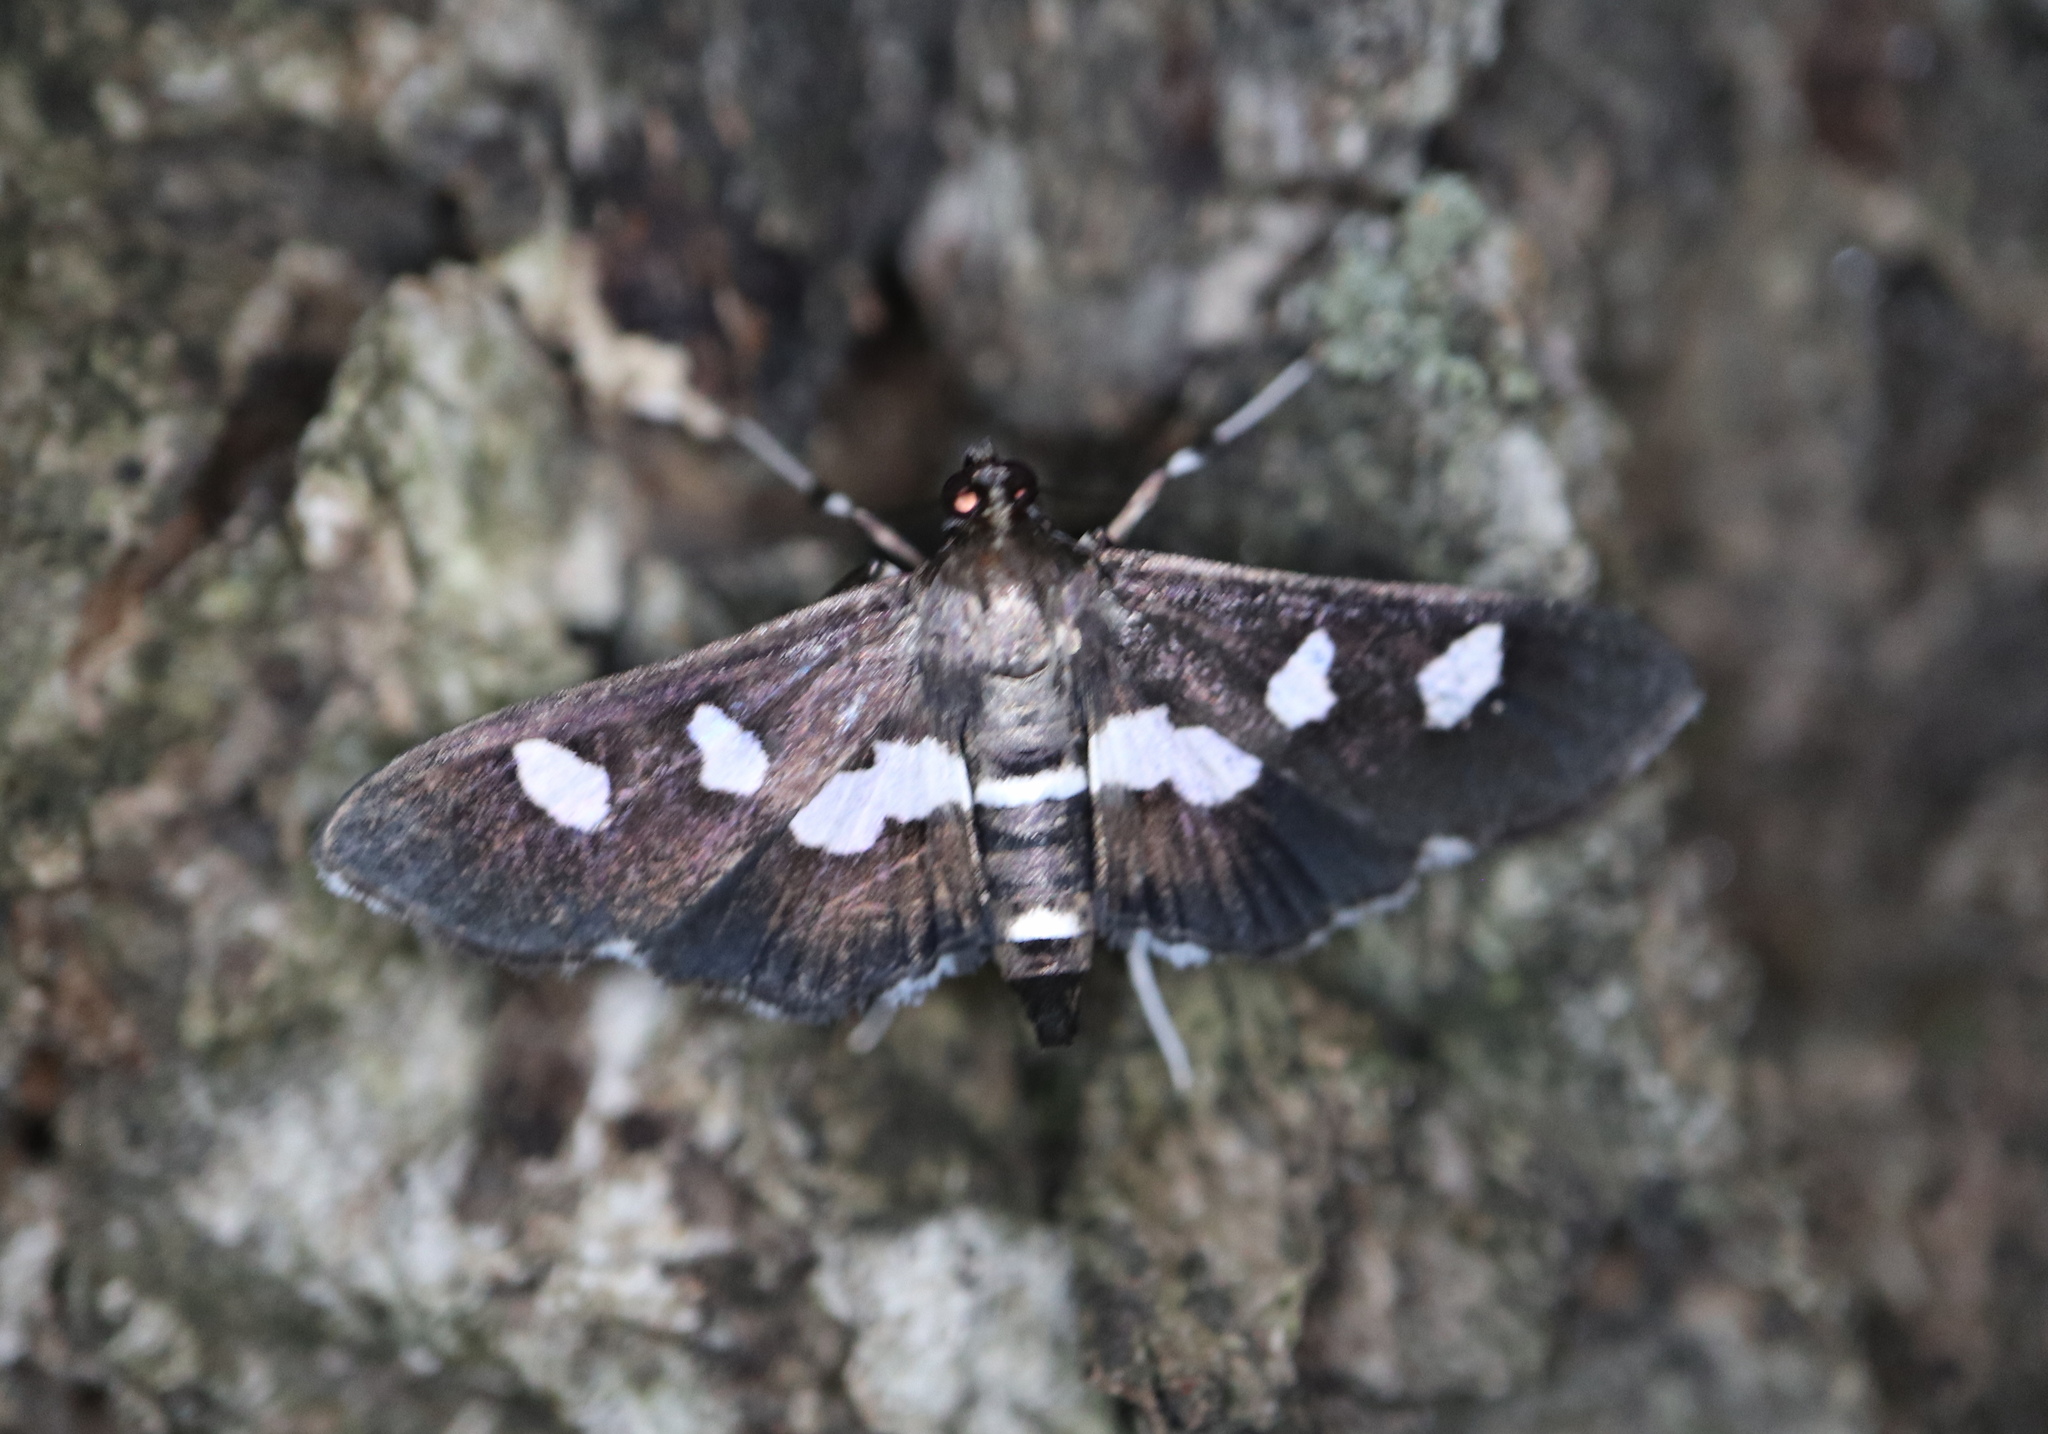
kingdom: Animalia
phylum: Arthropoda
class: Insecta
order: Lepidoptera
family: Crambidae
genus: Desmia
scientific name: Desmia
